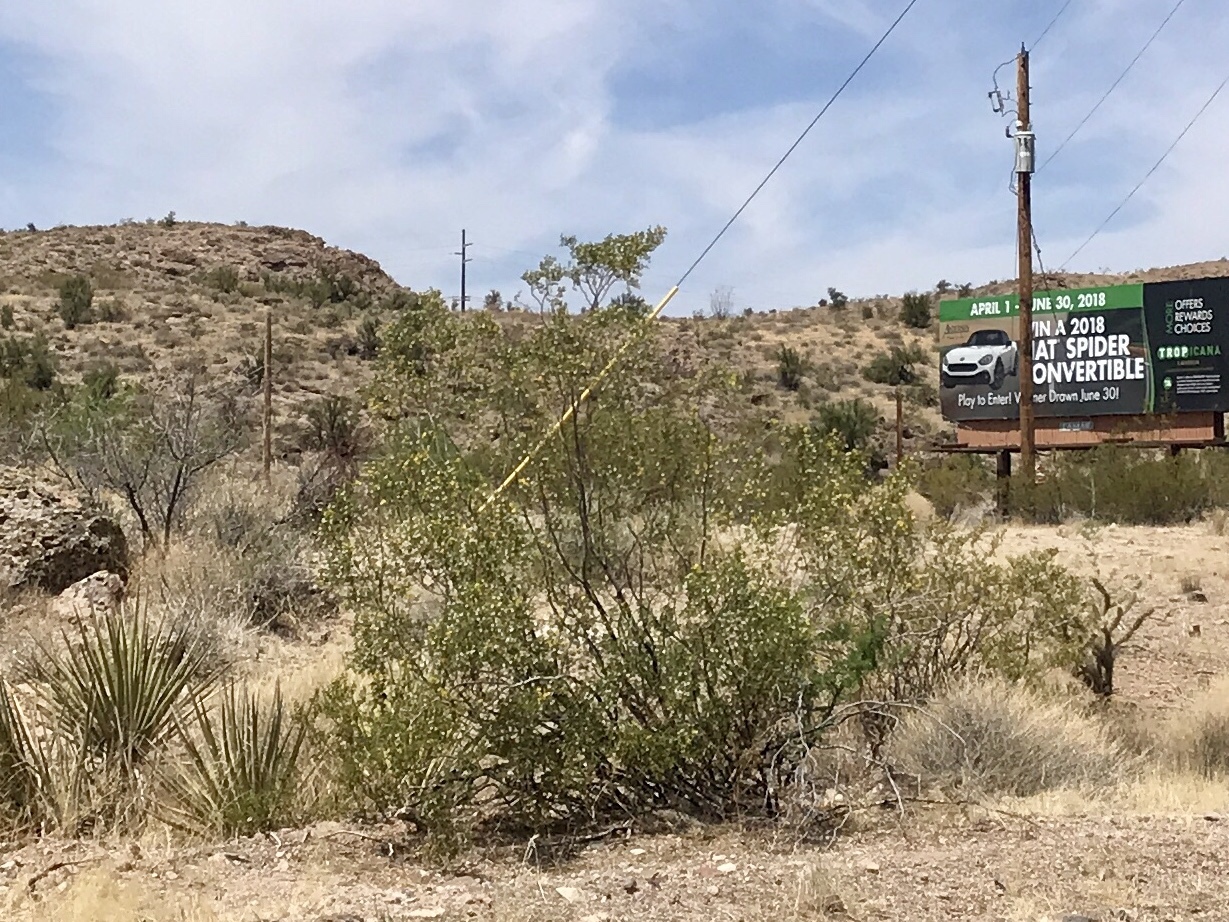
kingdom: Plantae
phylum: Tracheophyta
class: Magnoliopsida
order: Zygophyllales
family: Zygophyllaceae
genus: Larrea
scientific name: Larrea tridentata
